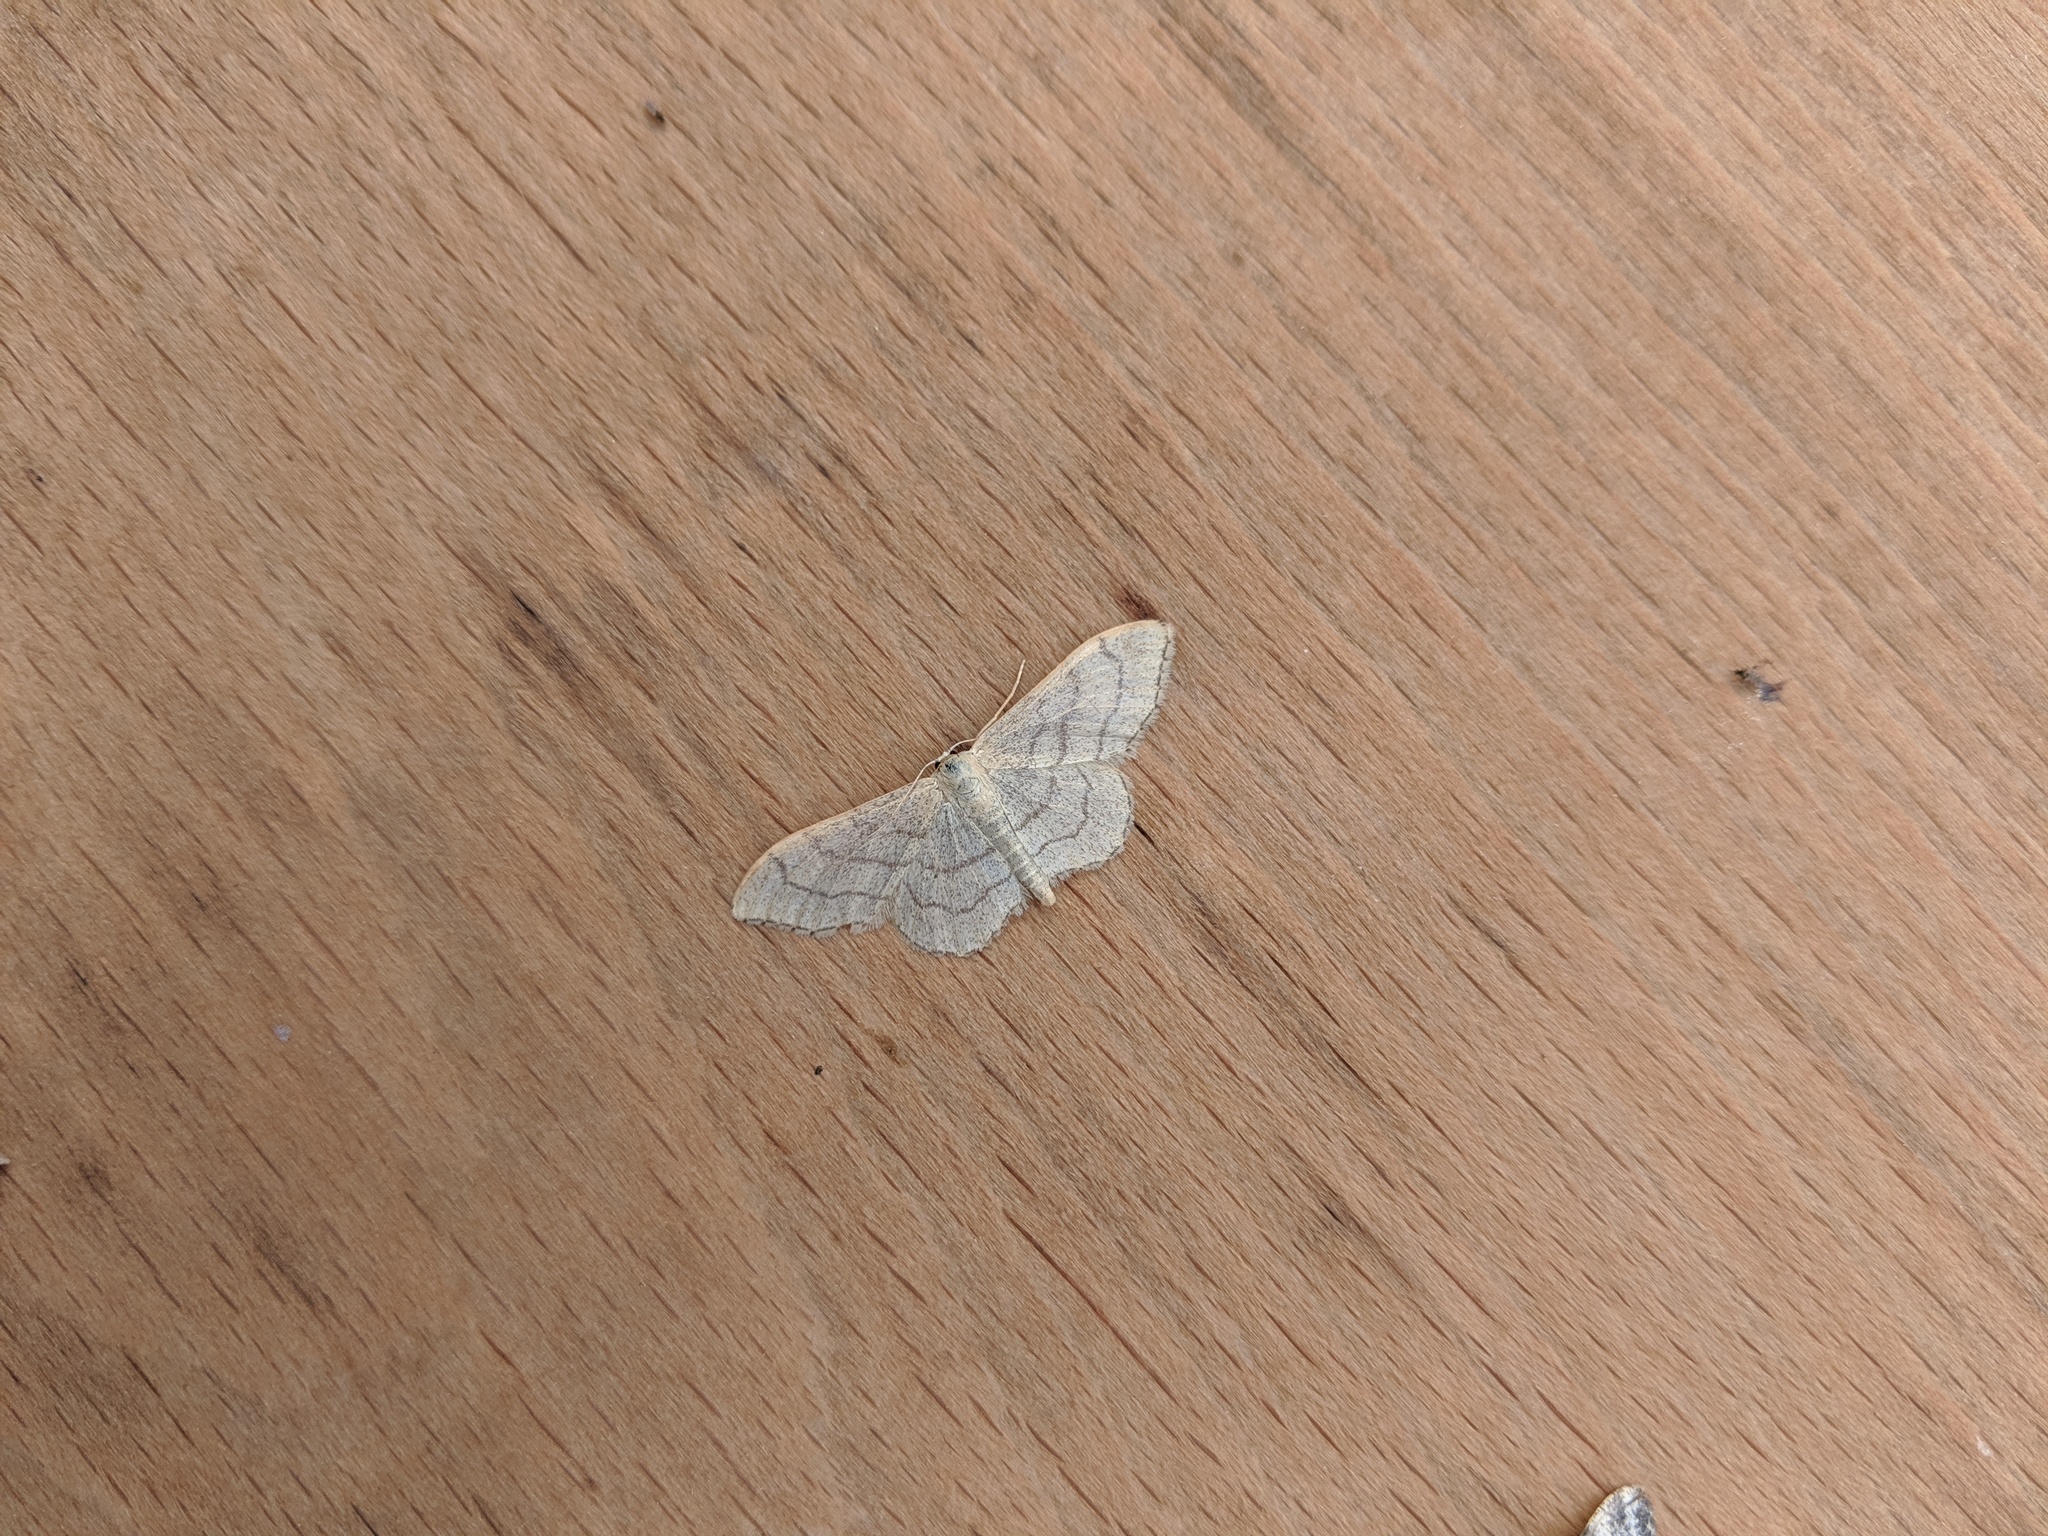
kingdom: Animalia
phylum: Arthropoda
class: Insecta
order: Lepidoptera
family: Geometridae
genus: Idaea
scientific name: Idaea aversata
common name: Riband wave
